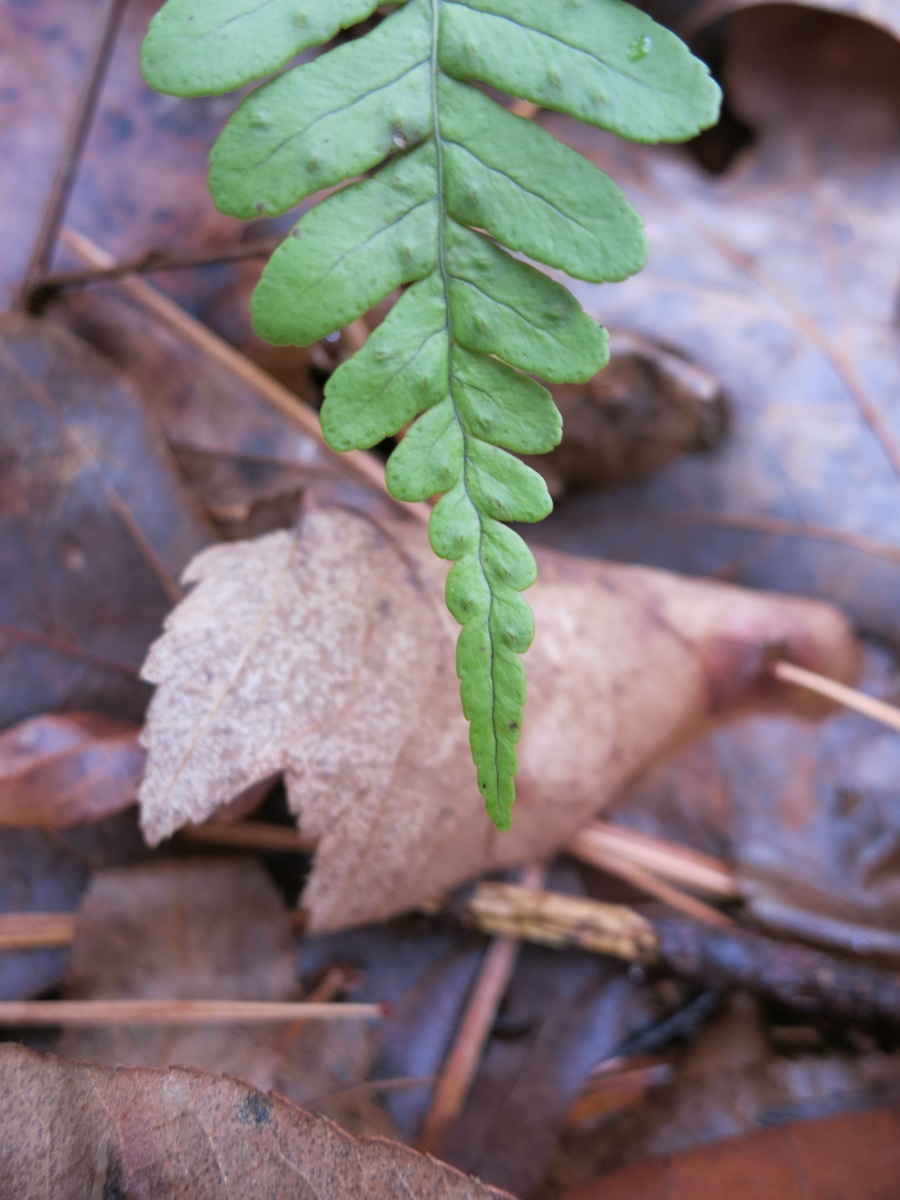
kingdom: Plantae
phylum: Tracheophyta
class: Polypodiopsida
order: Polypodiales
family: Polypodiaceae
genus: Polypodium
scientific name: Polypodium virginianum
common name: American wall fern
